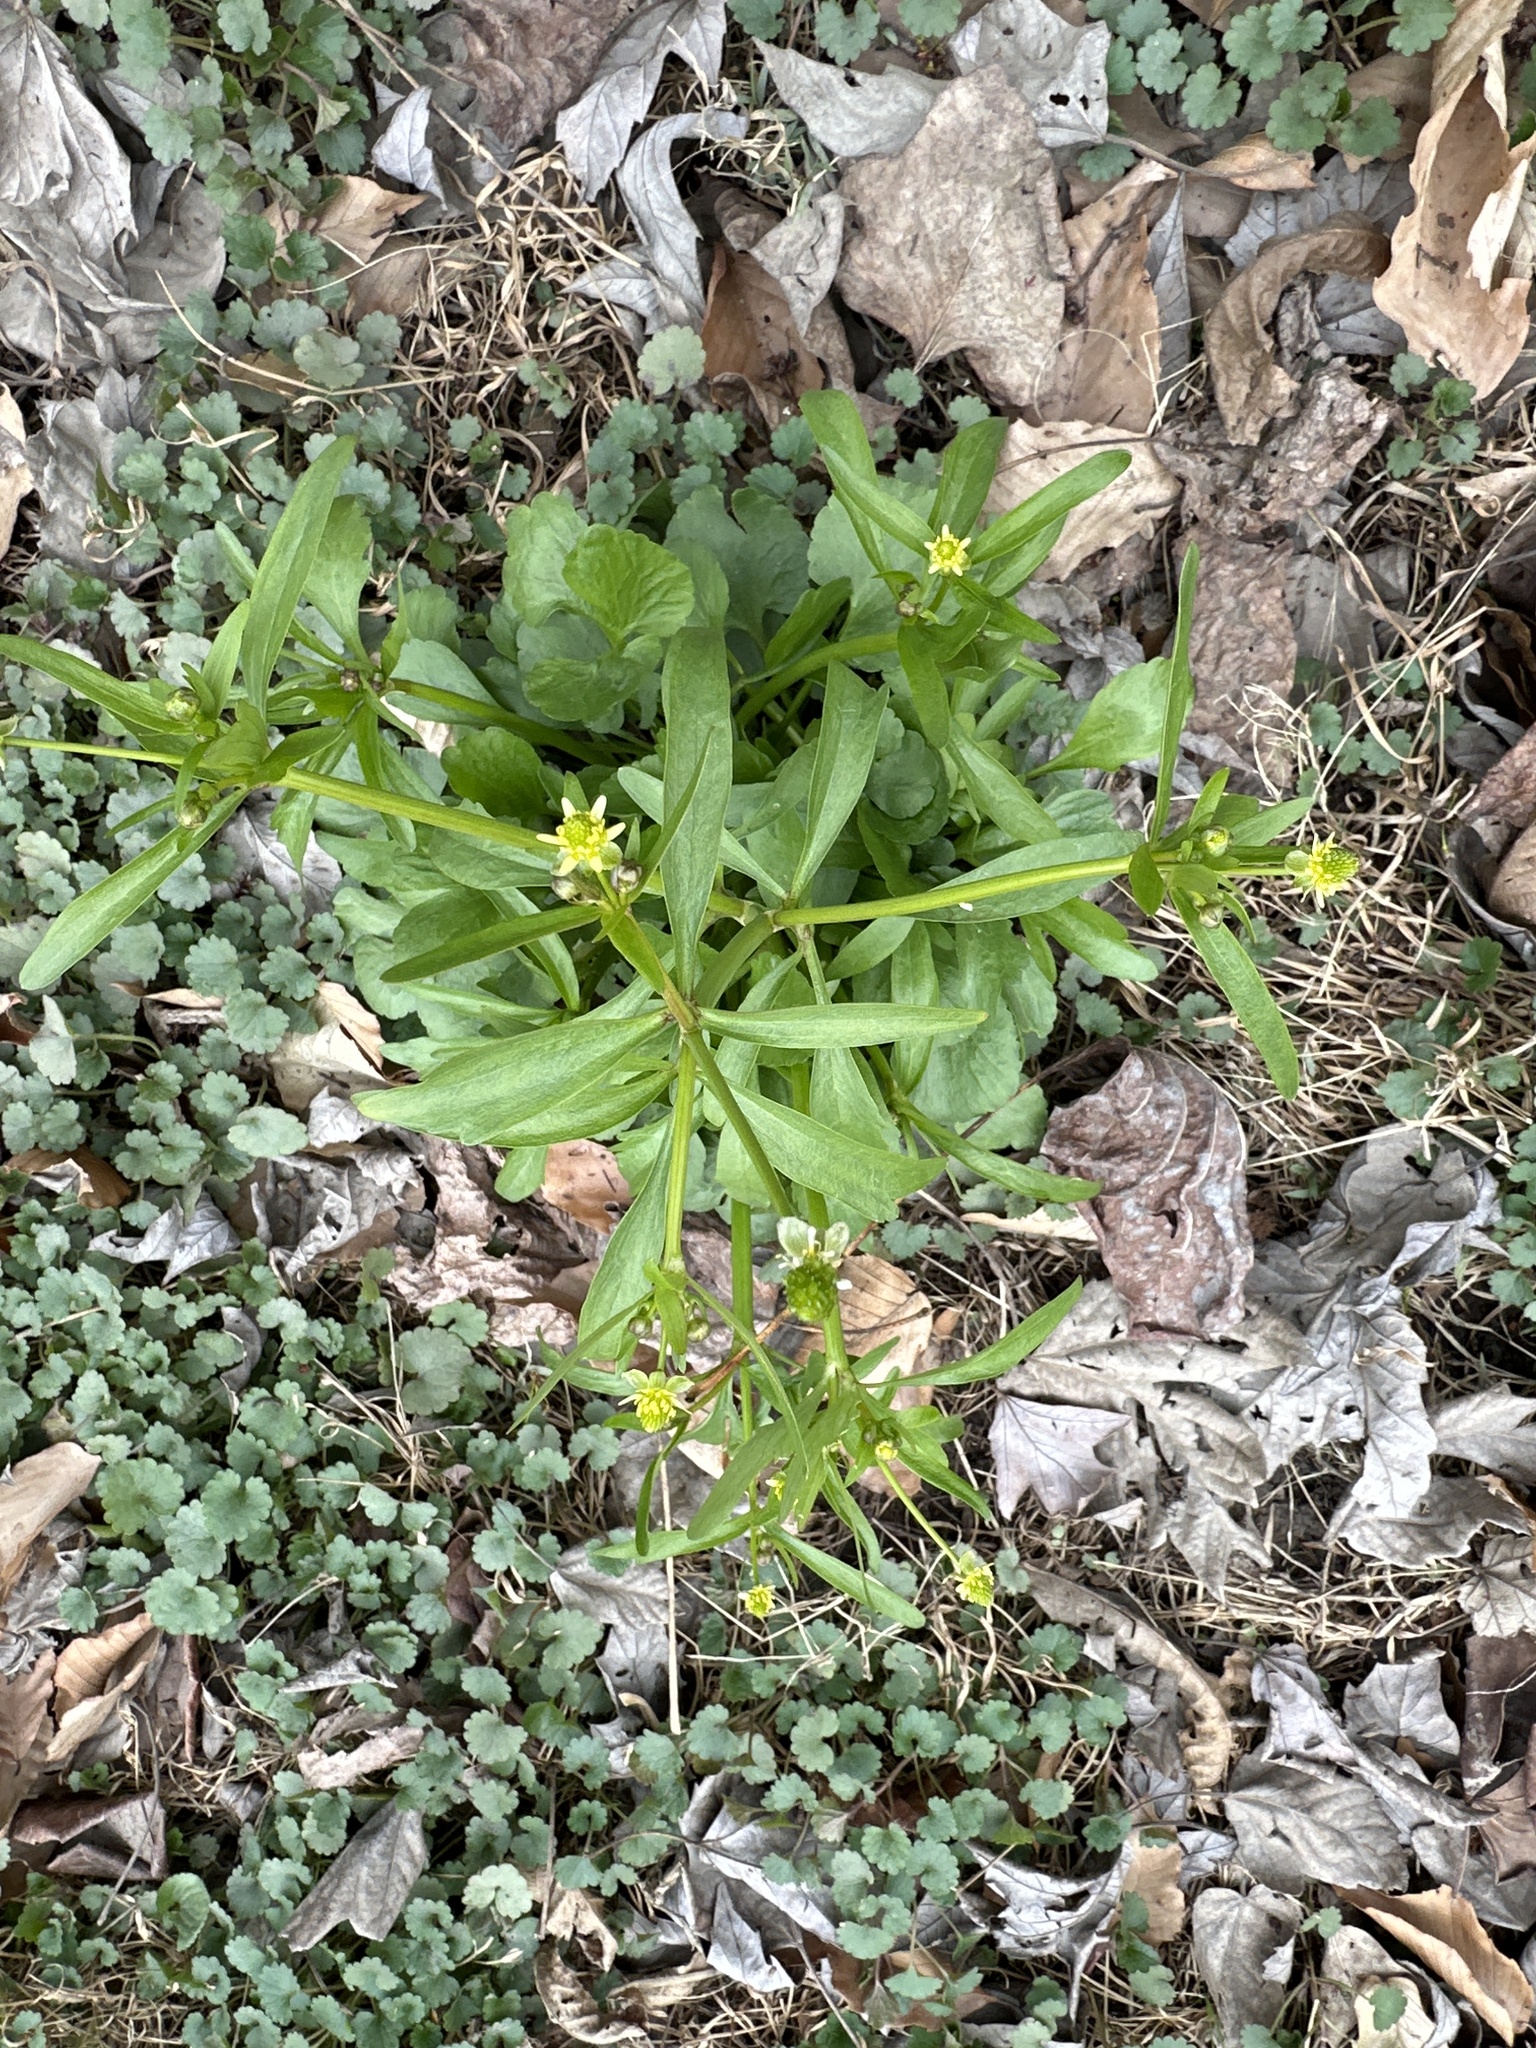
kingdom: Plantae
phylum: Tracheophyta
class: Magnoliopsida
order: Ranunculales
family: Ranunculaceae
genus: Ranunculus
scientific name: Ranunculus abortivus
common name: Early wood buttercup
